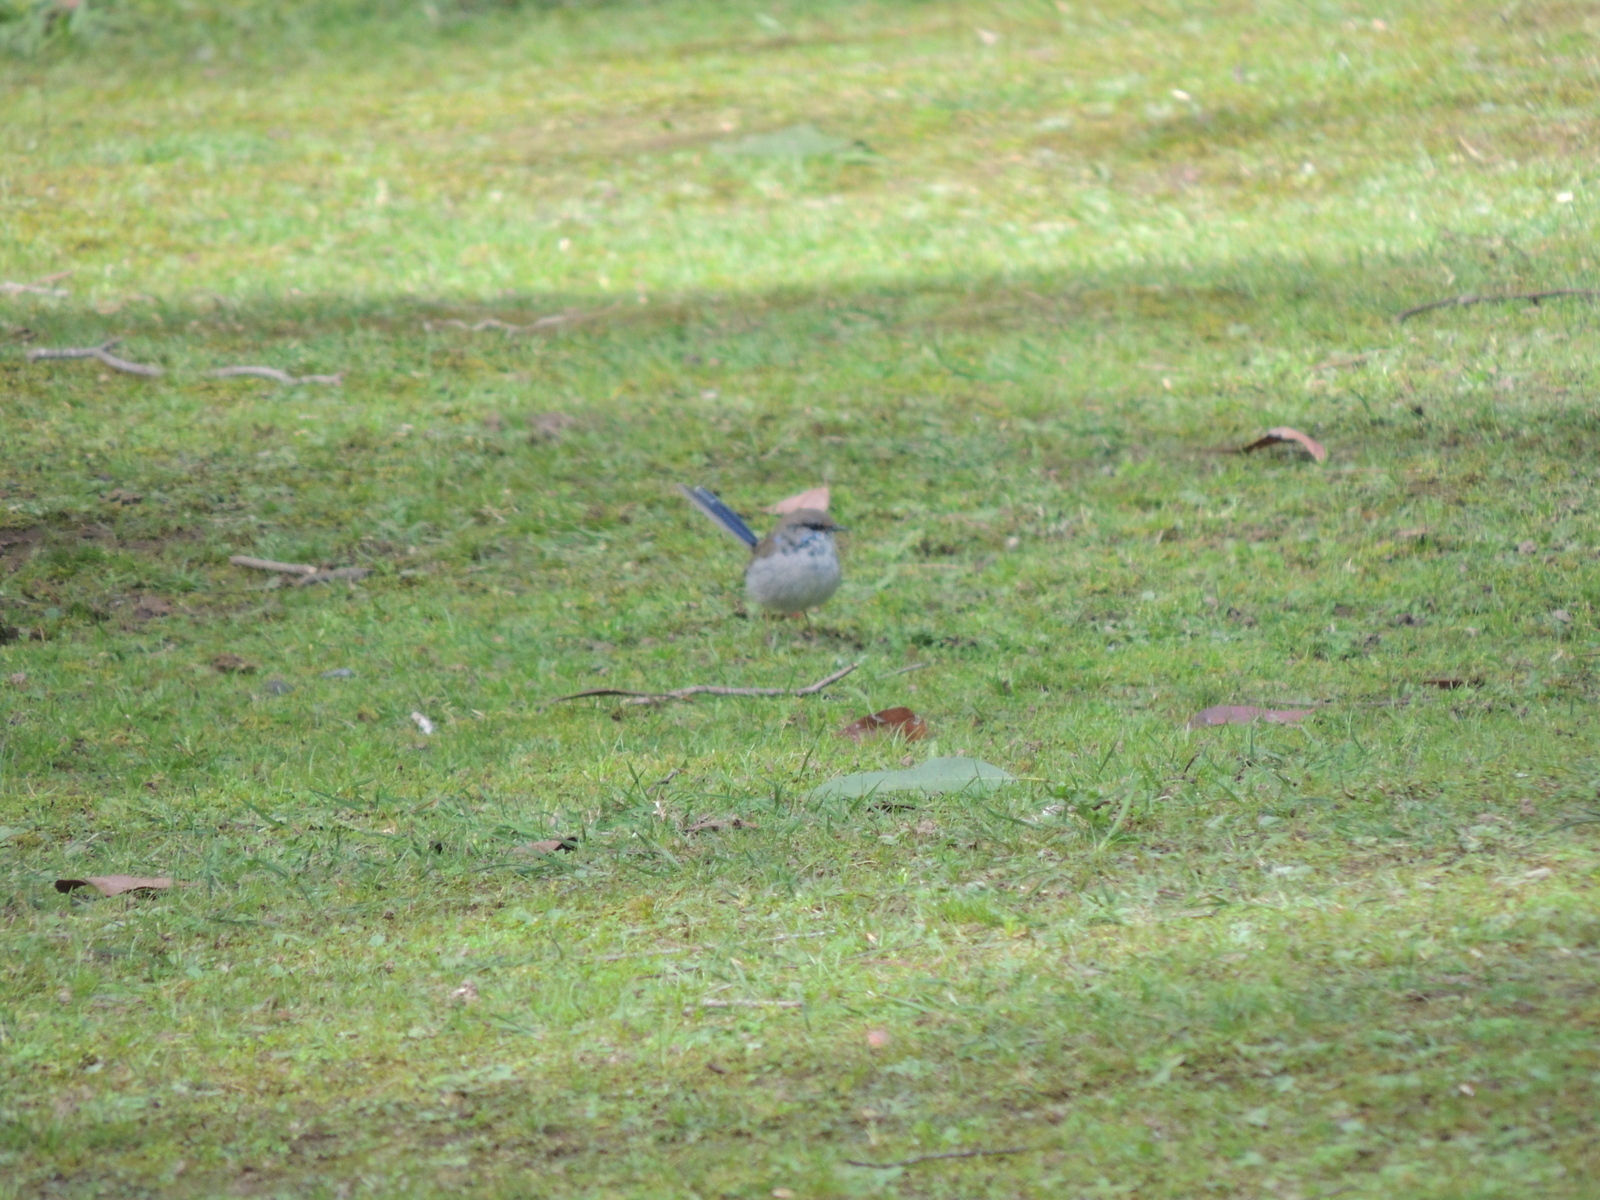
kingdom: Animalia
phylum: Chordata
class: Aves
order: Passeriformes
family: Maluridae
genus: Malurus
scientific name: Malurus cyaneus
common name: Superb fairywren
